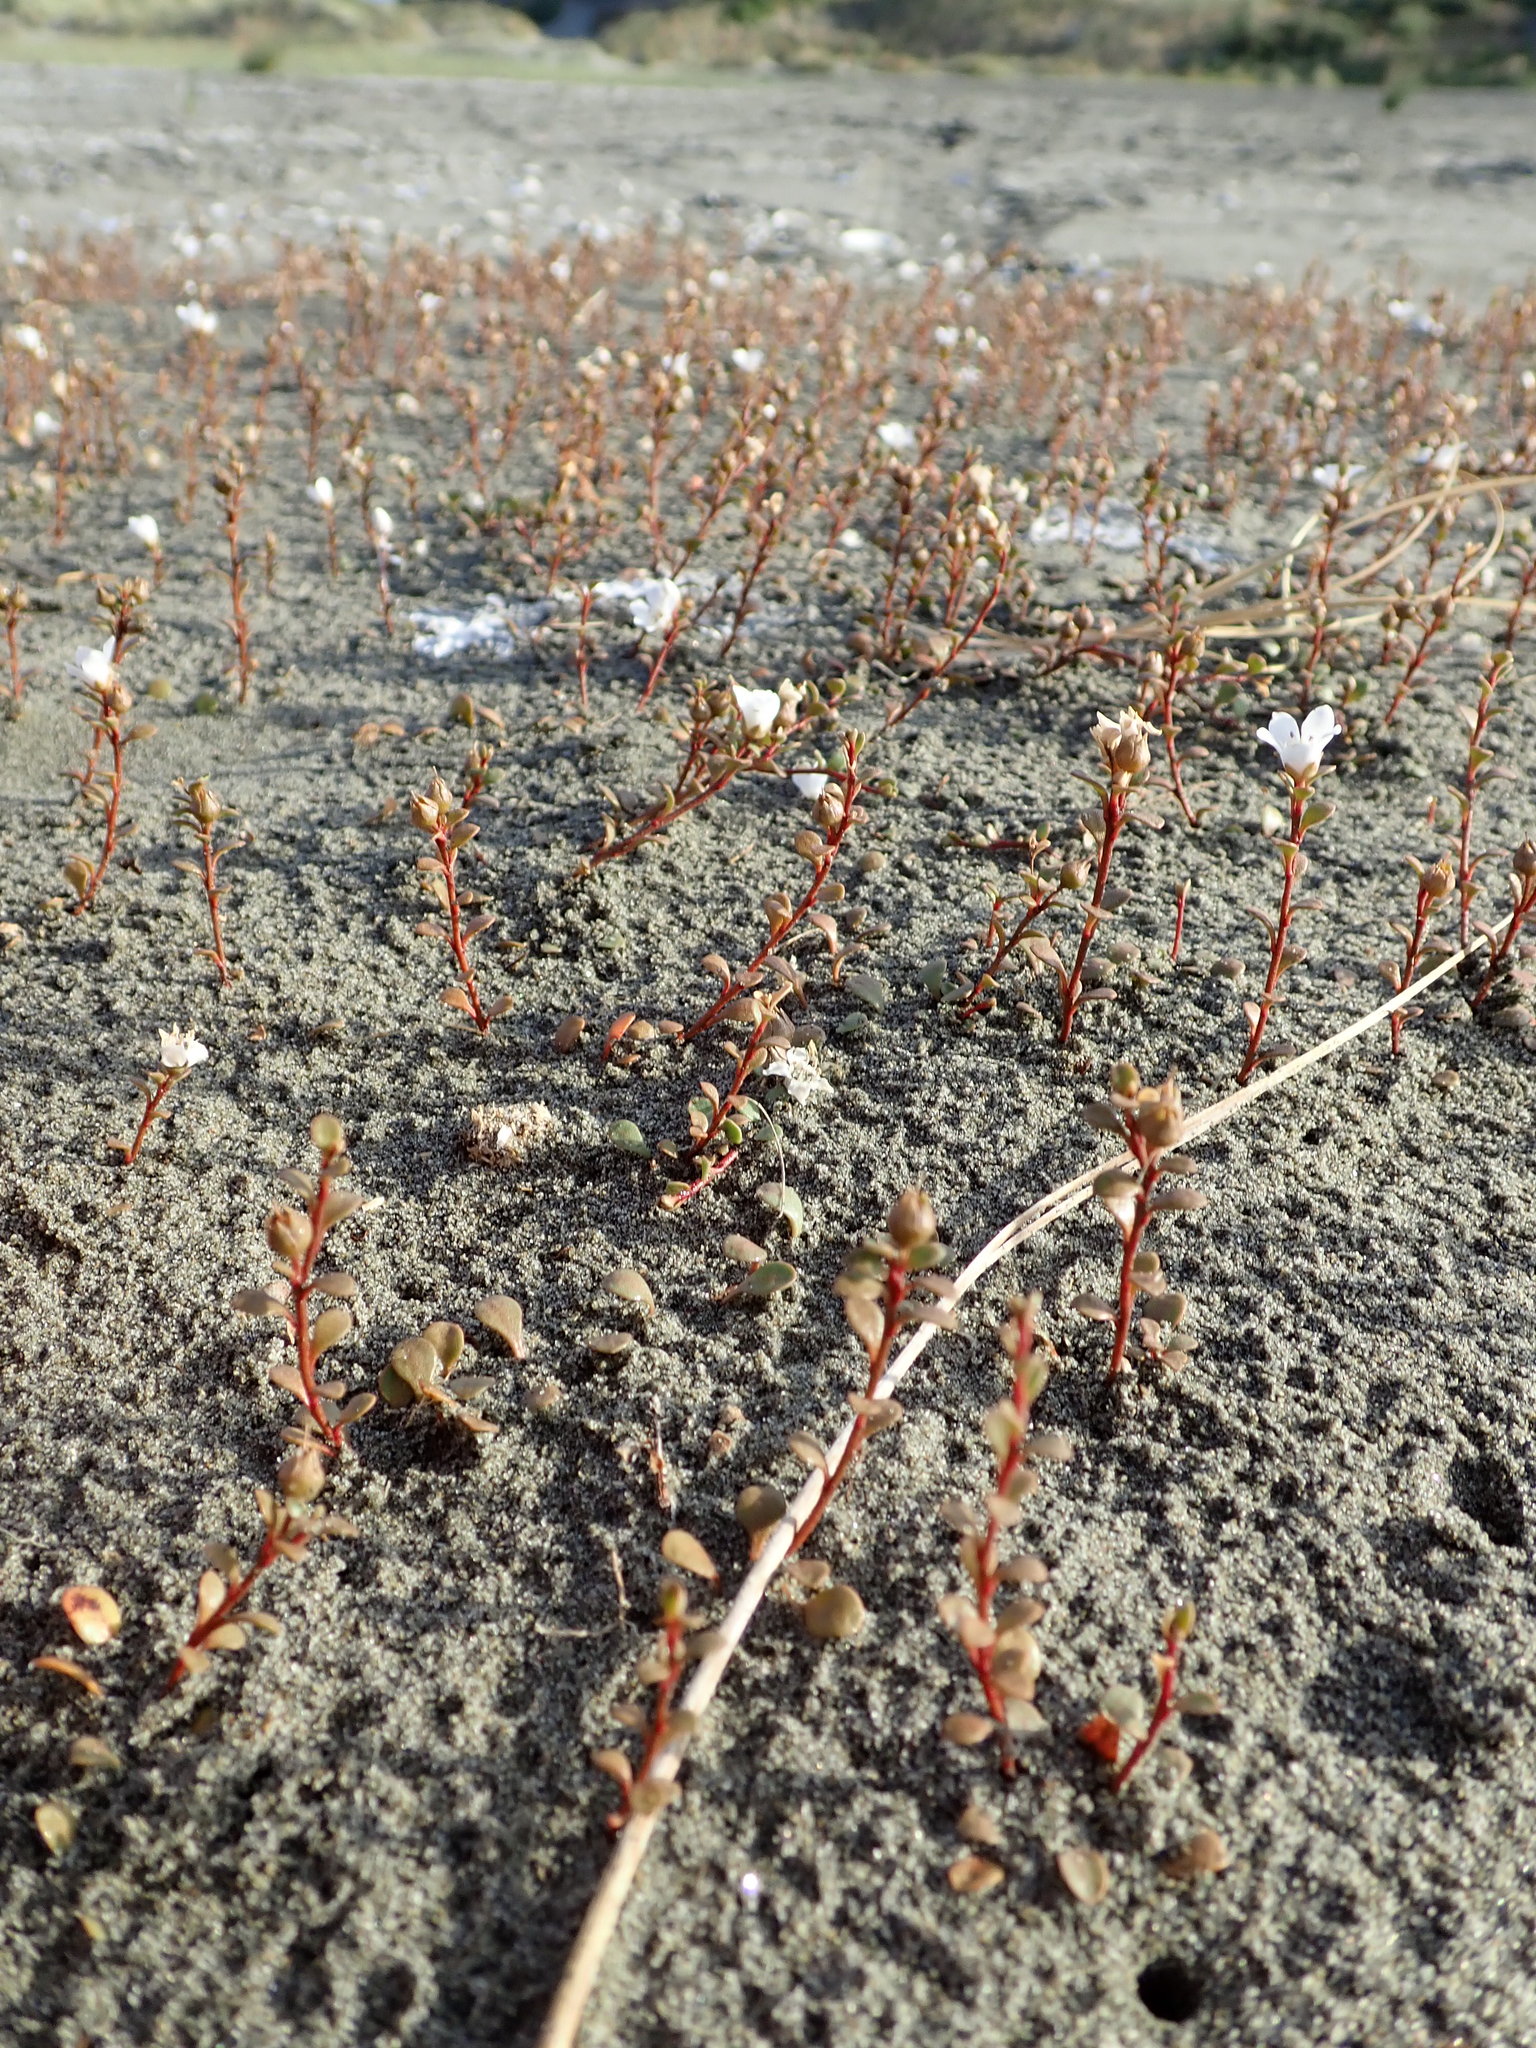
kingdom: Plantae
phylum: Tracheophyta
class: Magnoliopsida
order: Ericales
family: Primulaceae
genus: Samolus
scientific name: Samolus repens
